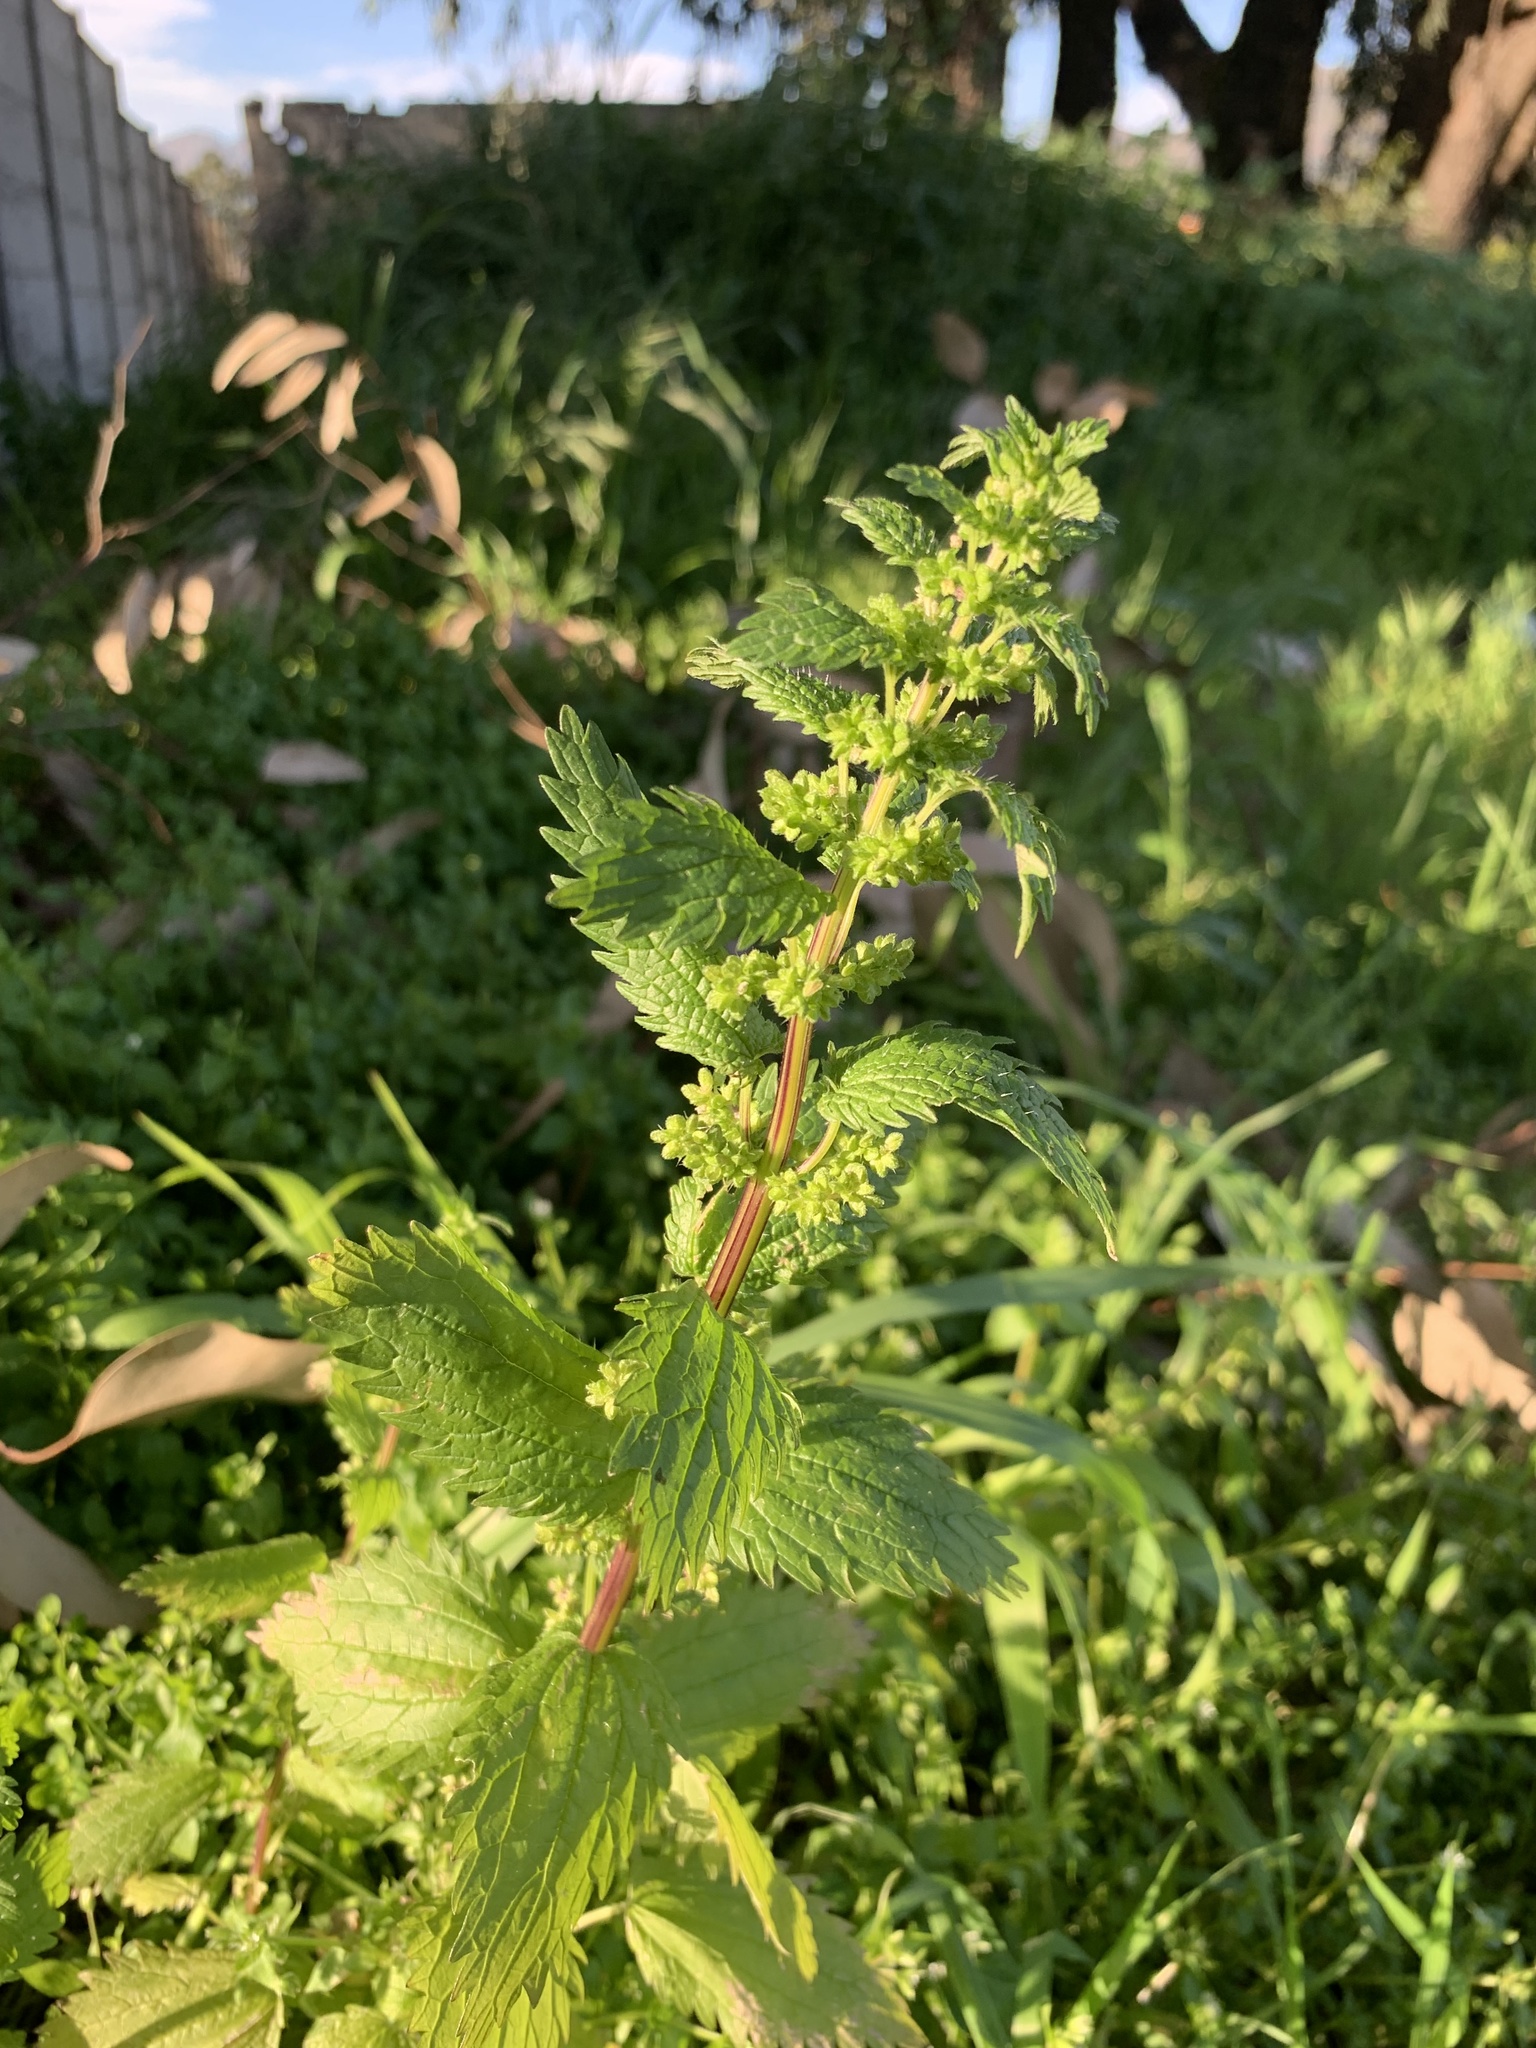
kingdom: Plantae
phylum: Tracheophyta
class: Magnoliopsida
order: Rosales
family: Urticaceae
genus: Urtica
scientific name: Urtica urens
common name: Dwarf nettle
